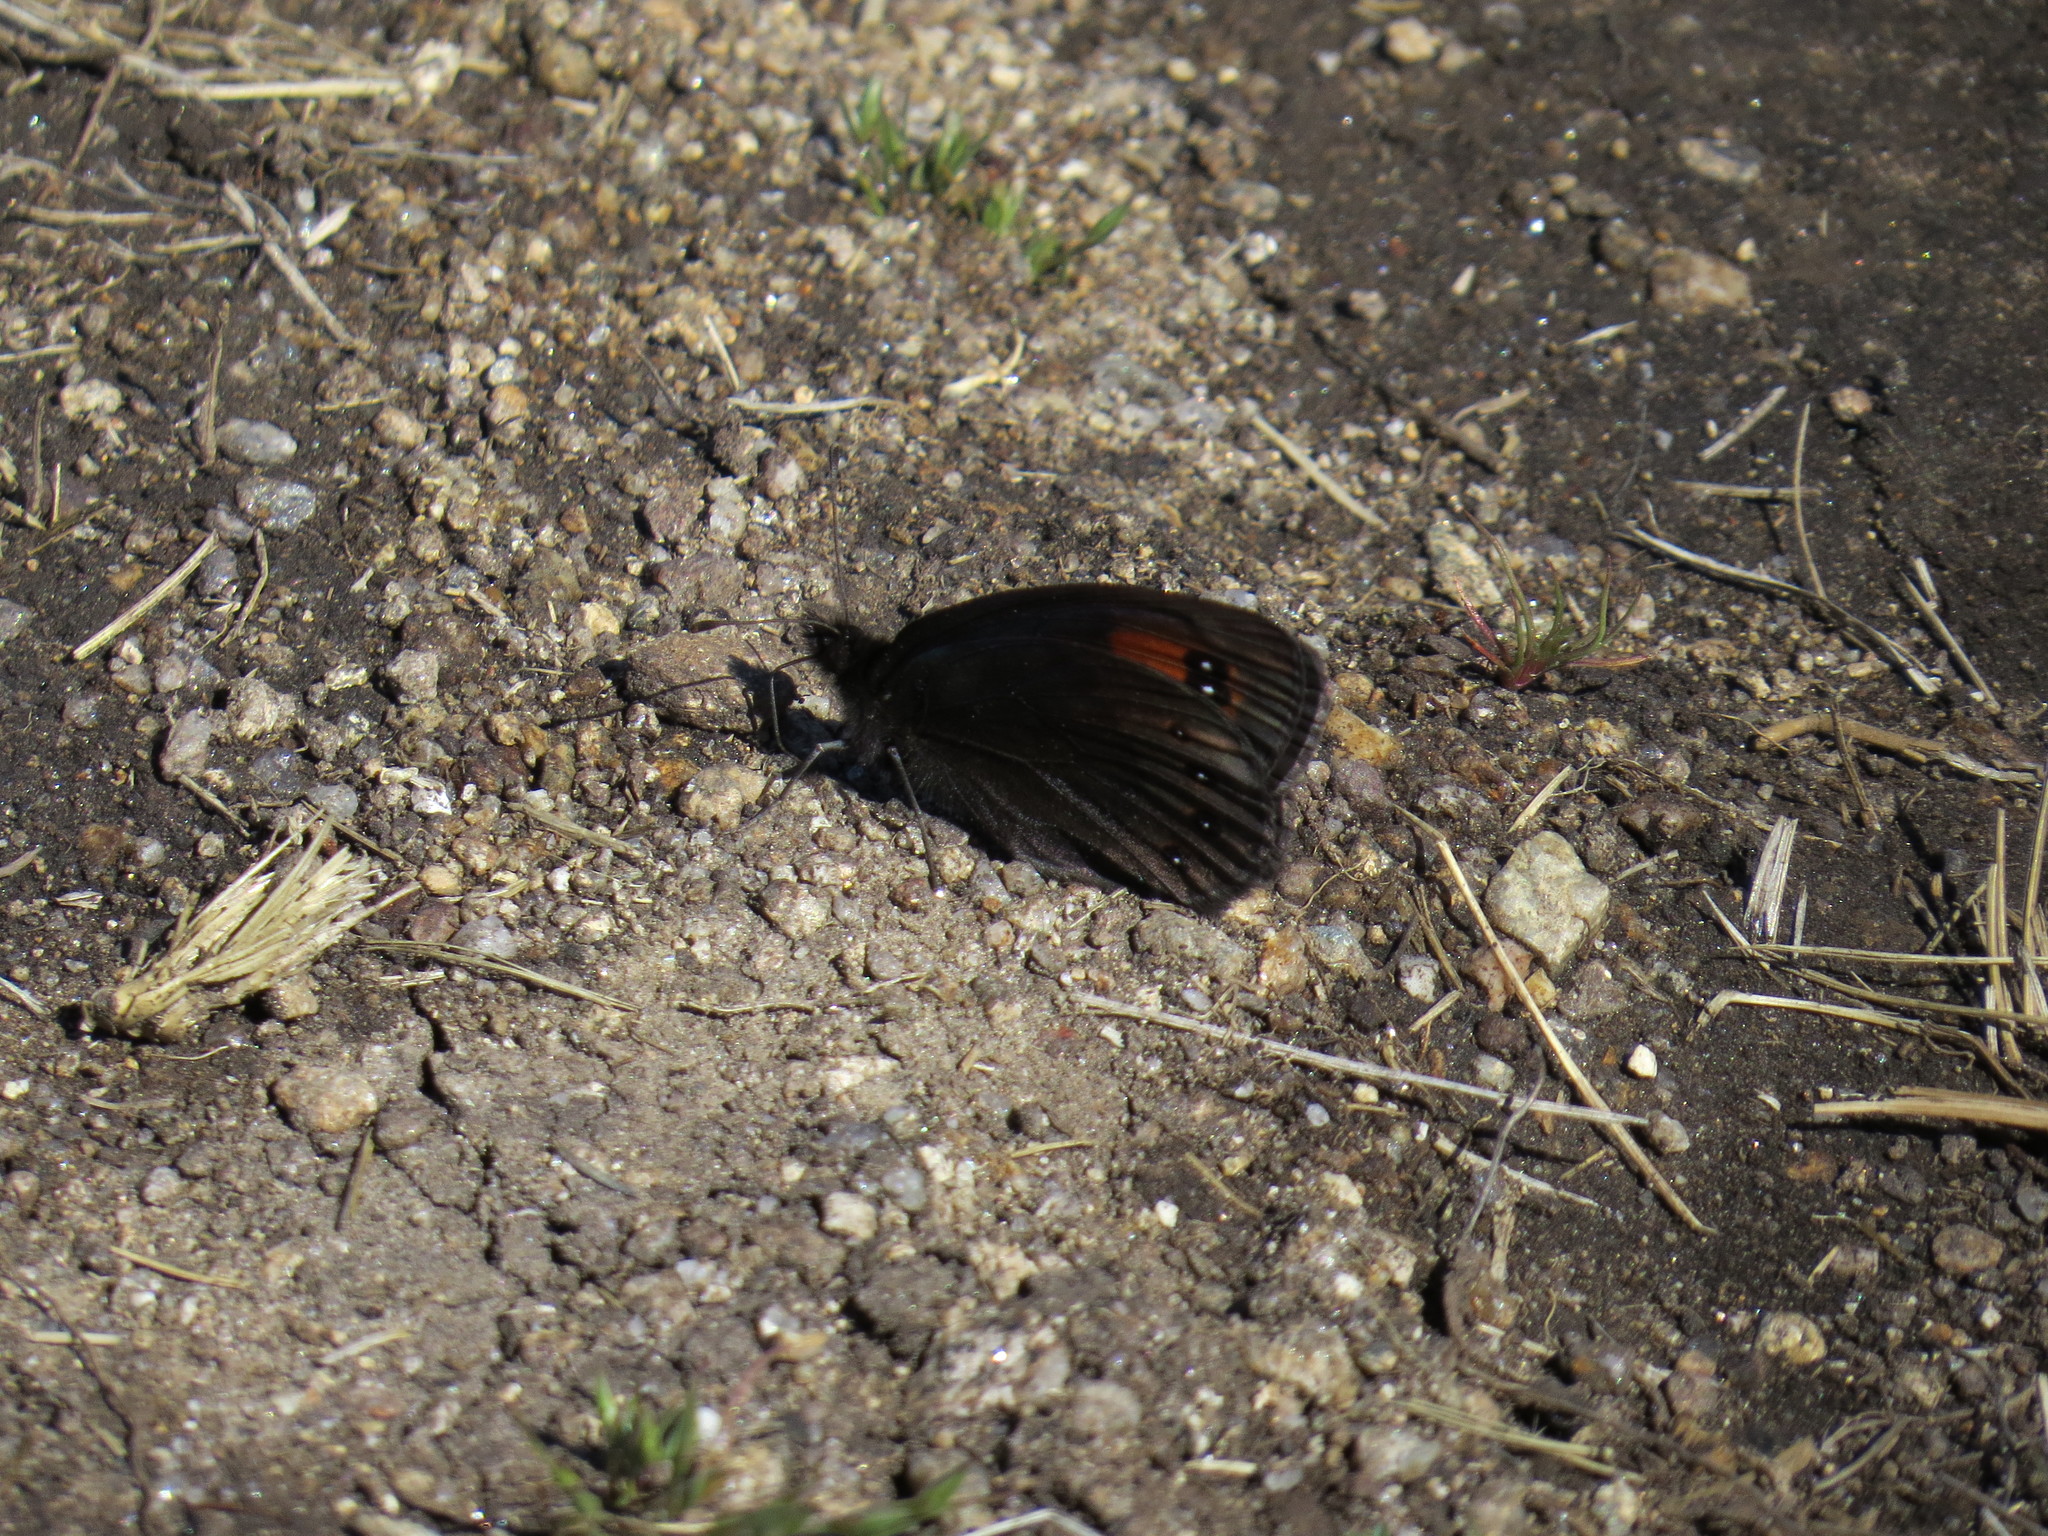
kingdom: Animalia
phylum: Arthropoda
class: Insecta
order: Lepidoptera
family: Nymphalidae
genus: Erebia
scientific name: Erebia meolans
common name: Piedmont ringlet
